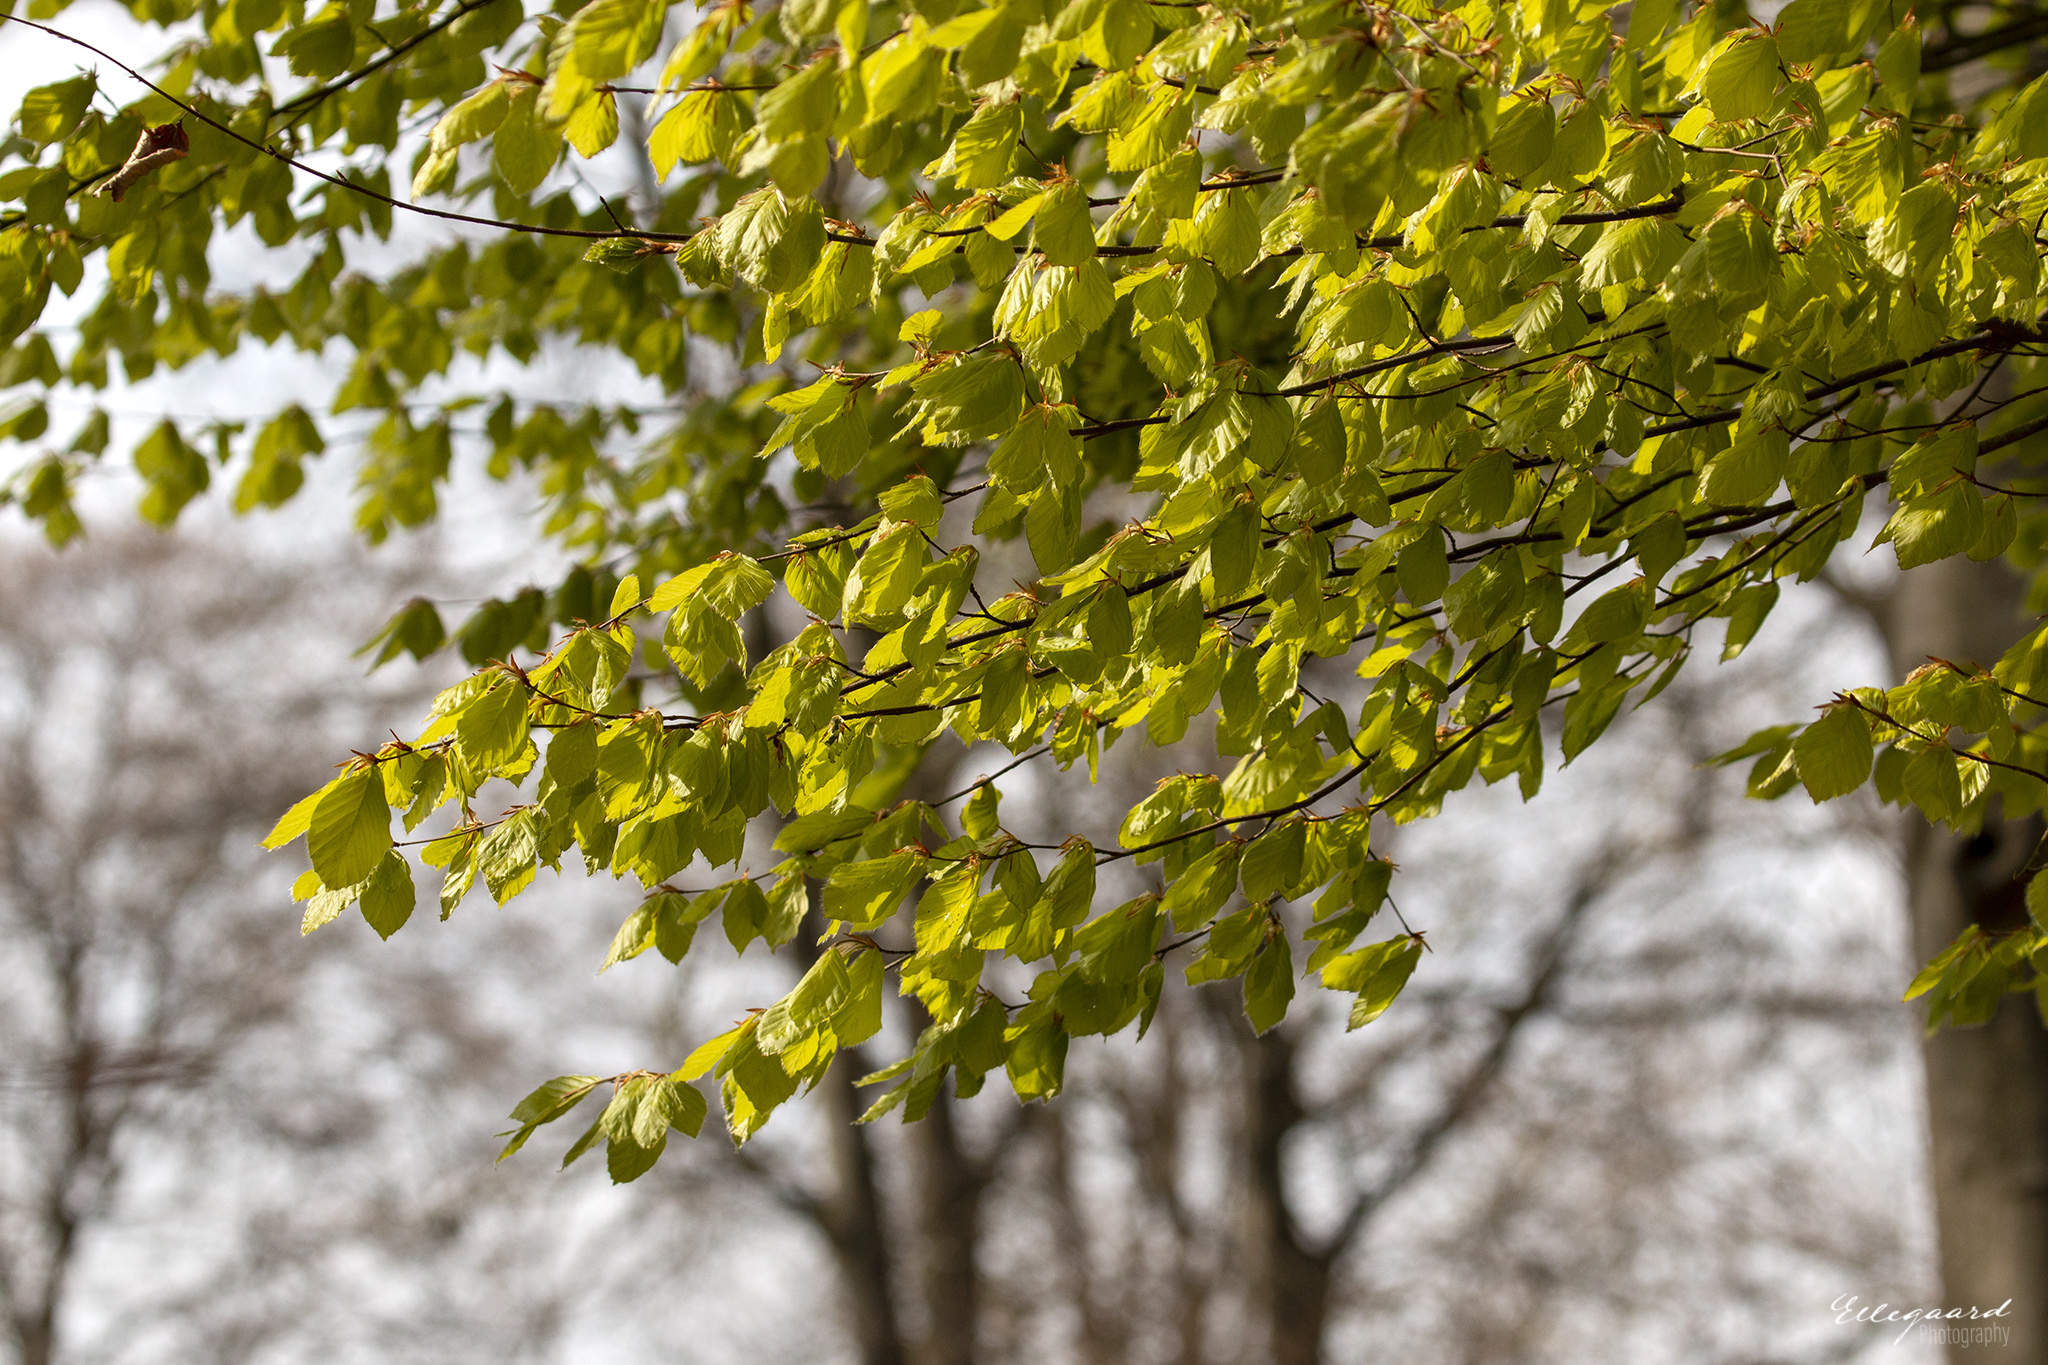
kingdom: Plantae
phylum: Tracheophyta
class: Magnoliopsida
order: Fagales
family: Fagaceae
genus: Fagus
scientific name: Fagus sylvatica
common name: Beech
